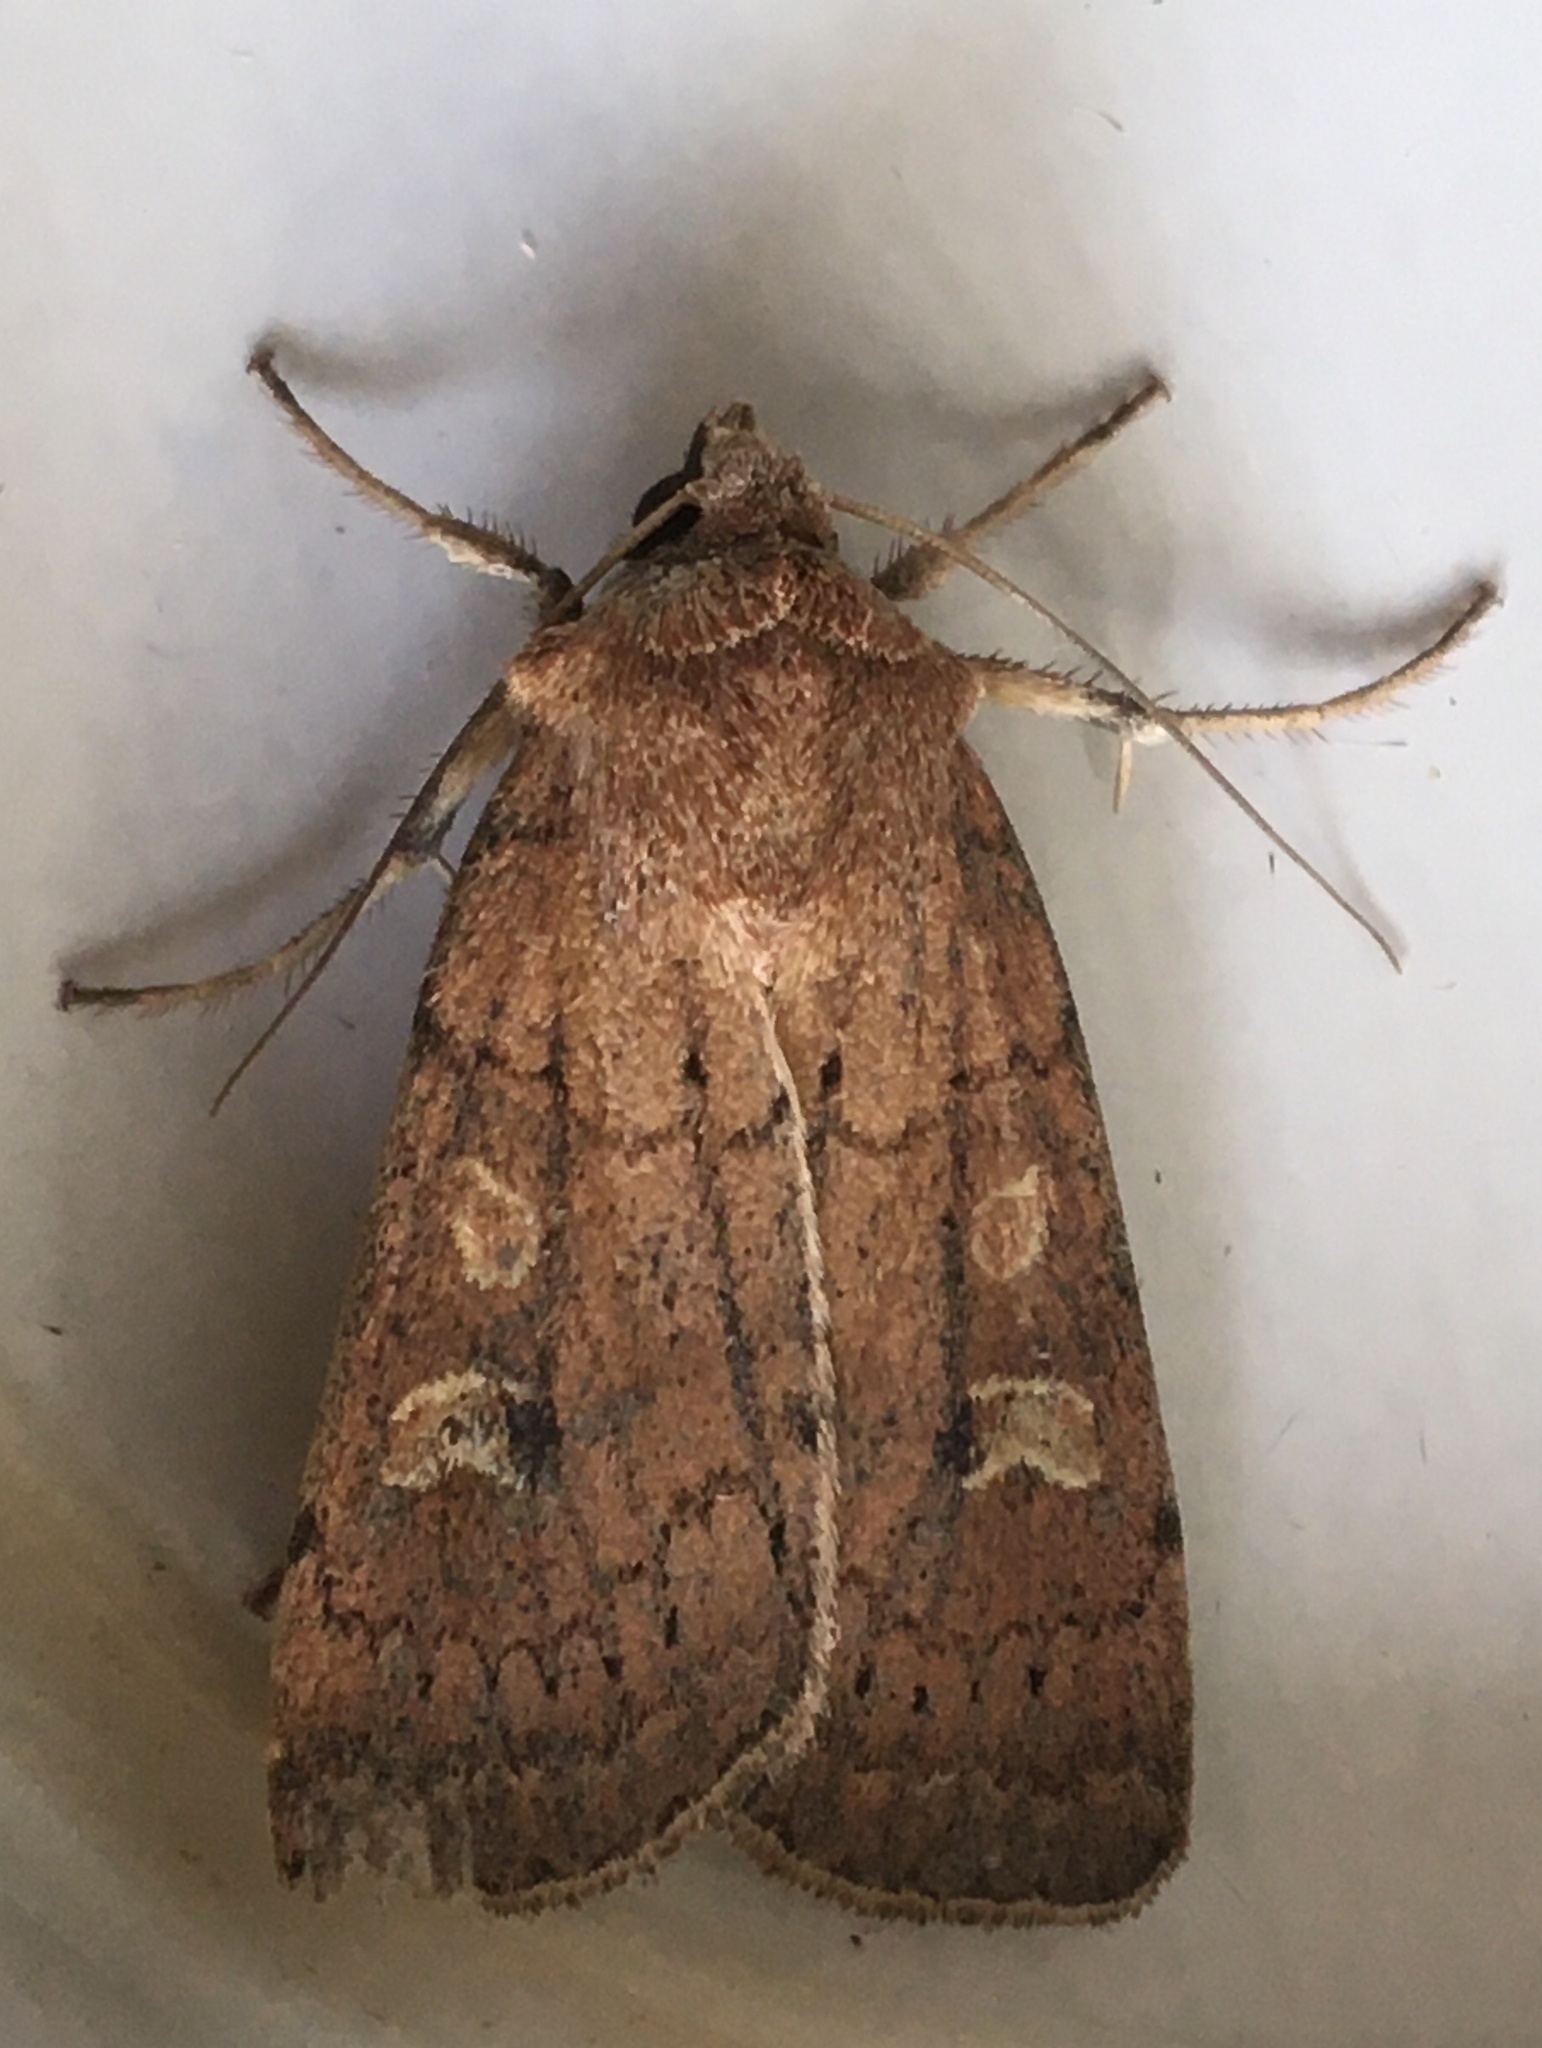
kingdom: Animalia
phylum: Arthropoda
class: Insecta
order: Lepidoptera
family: Noctuidae
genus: Xestia
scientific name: Xestia xanthographa
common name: Square-spot rustic
